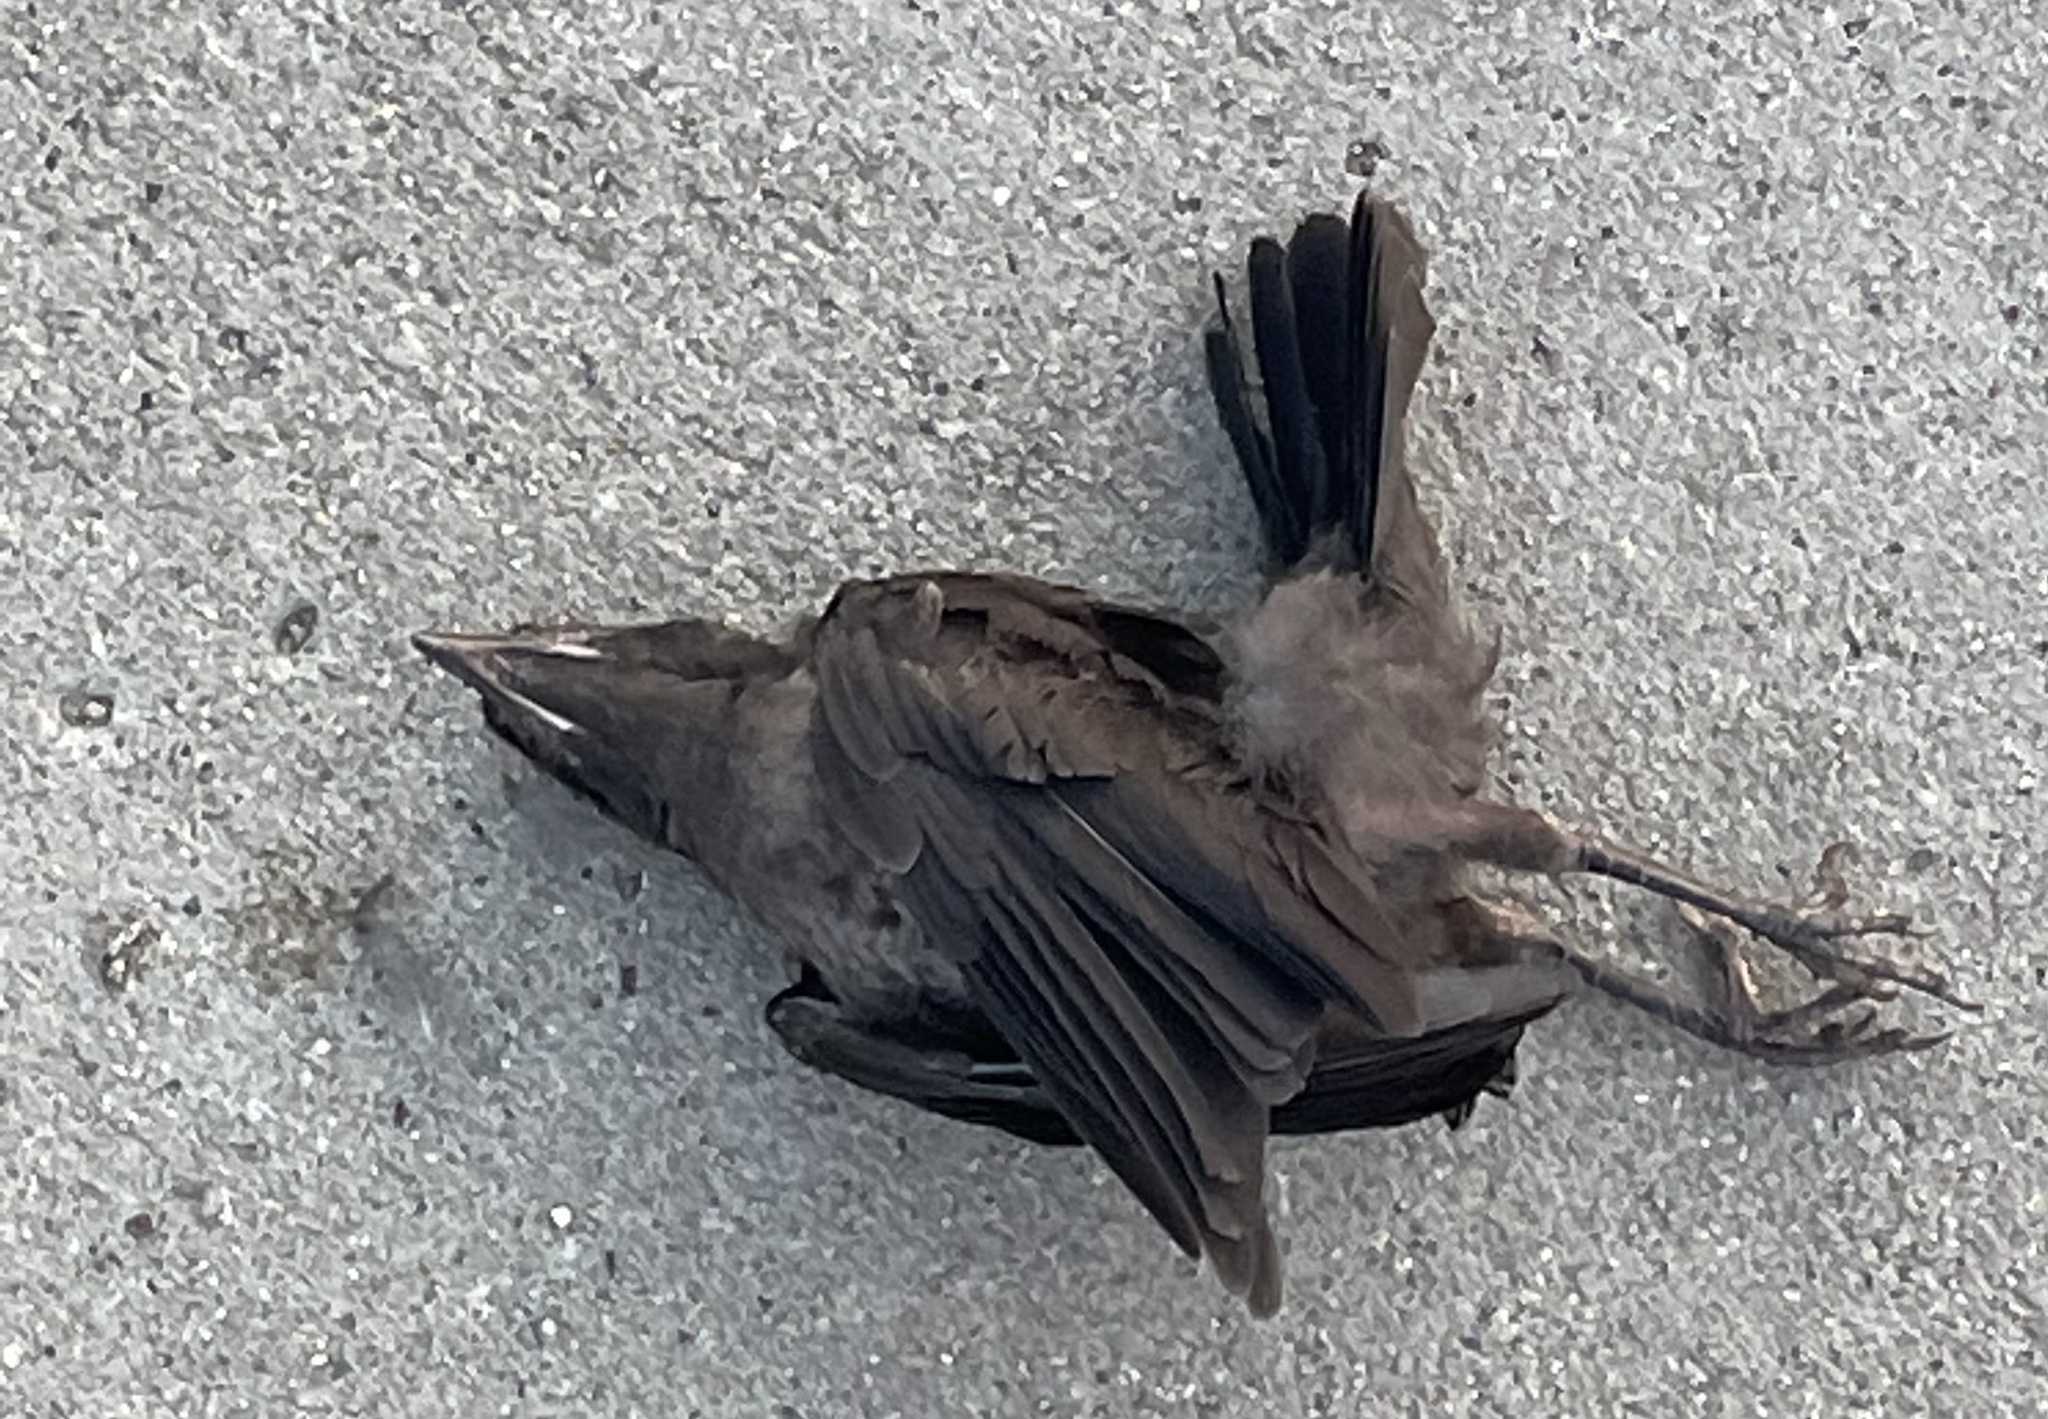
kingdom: Animalia
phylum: Chordata
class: Aves
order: Passeriformes
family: Icteridae
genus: Quiscalus
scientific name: Quiscalus quiscula
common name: Common grackle
